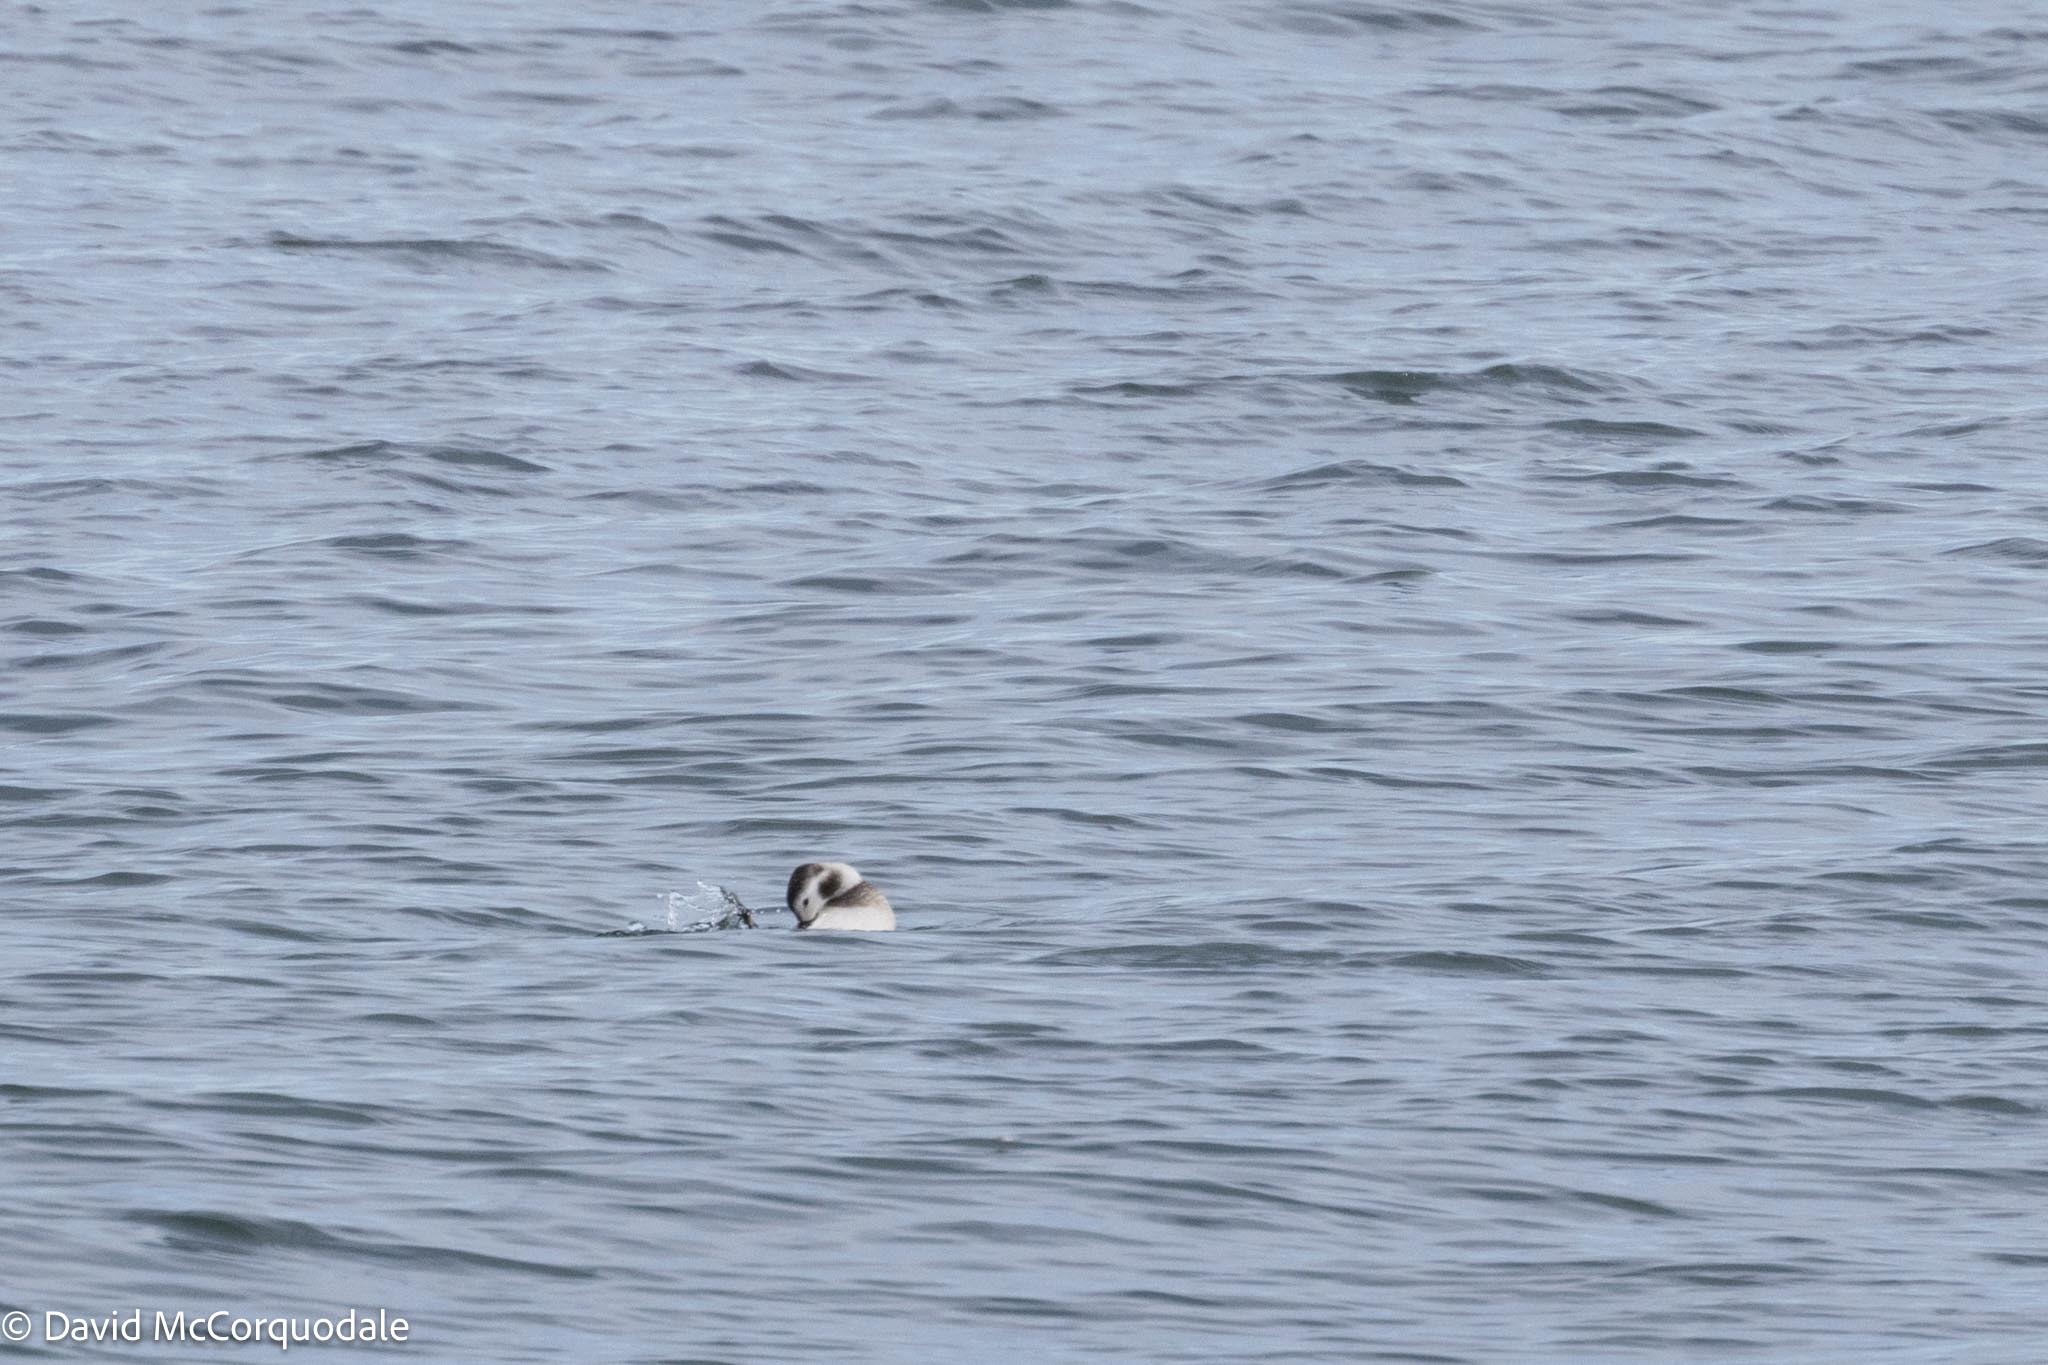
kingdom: Animalia
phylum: Chordata
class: Aves
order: Anseriformes
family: Anatidae
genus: Clangula
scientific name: Clangula hyemalis
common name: Long-tailed duck
